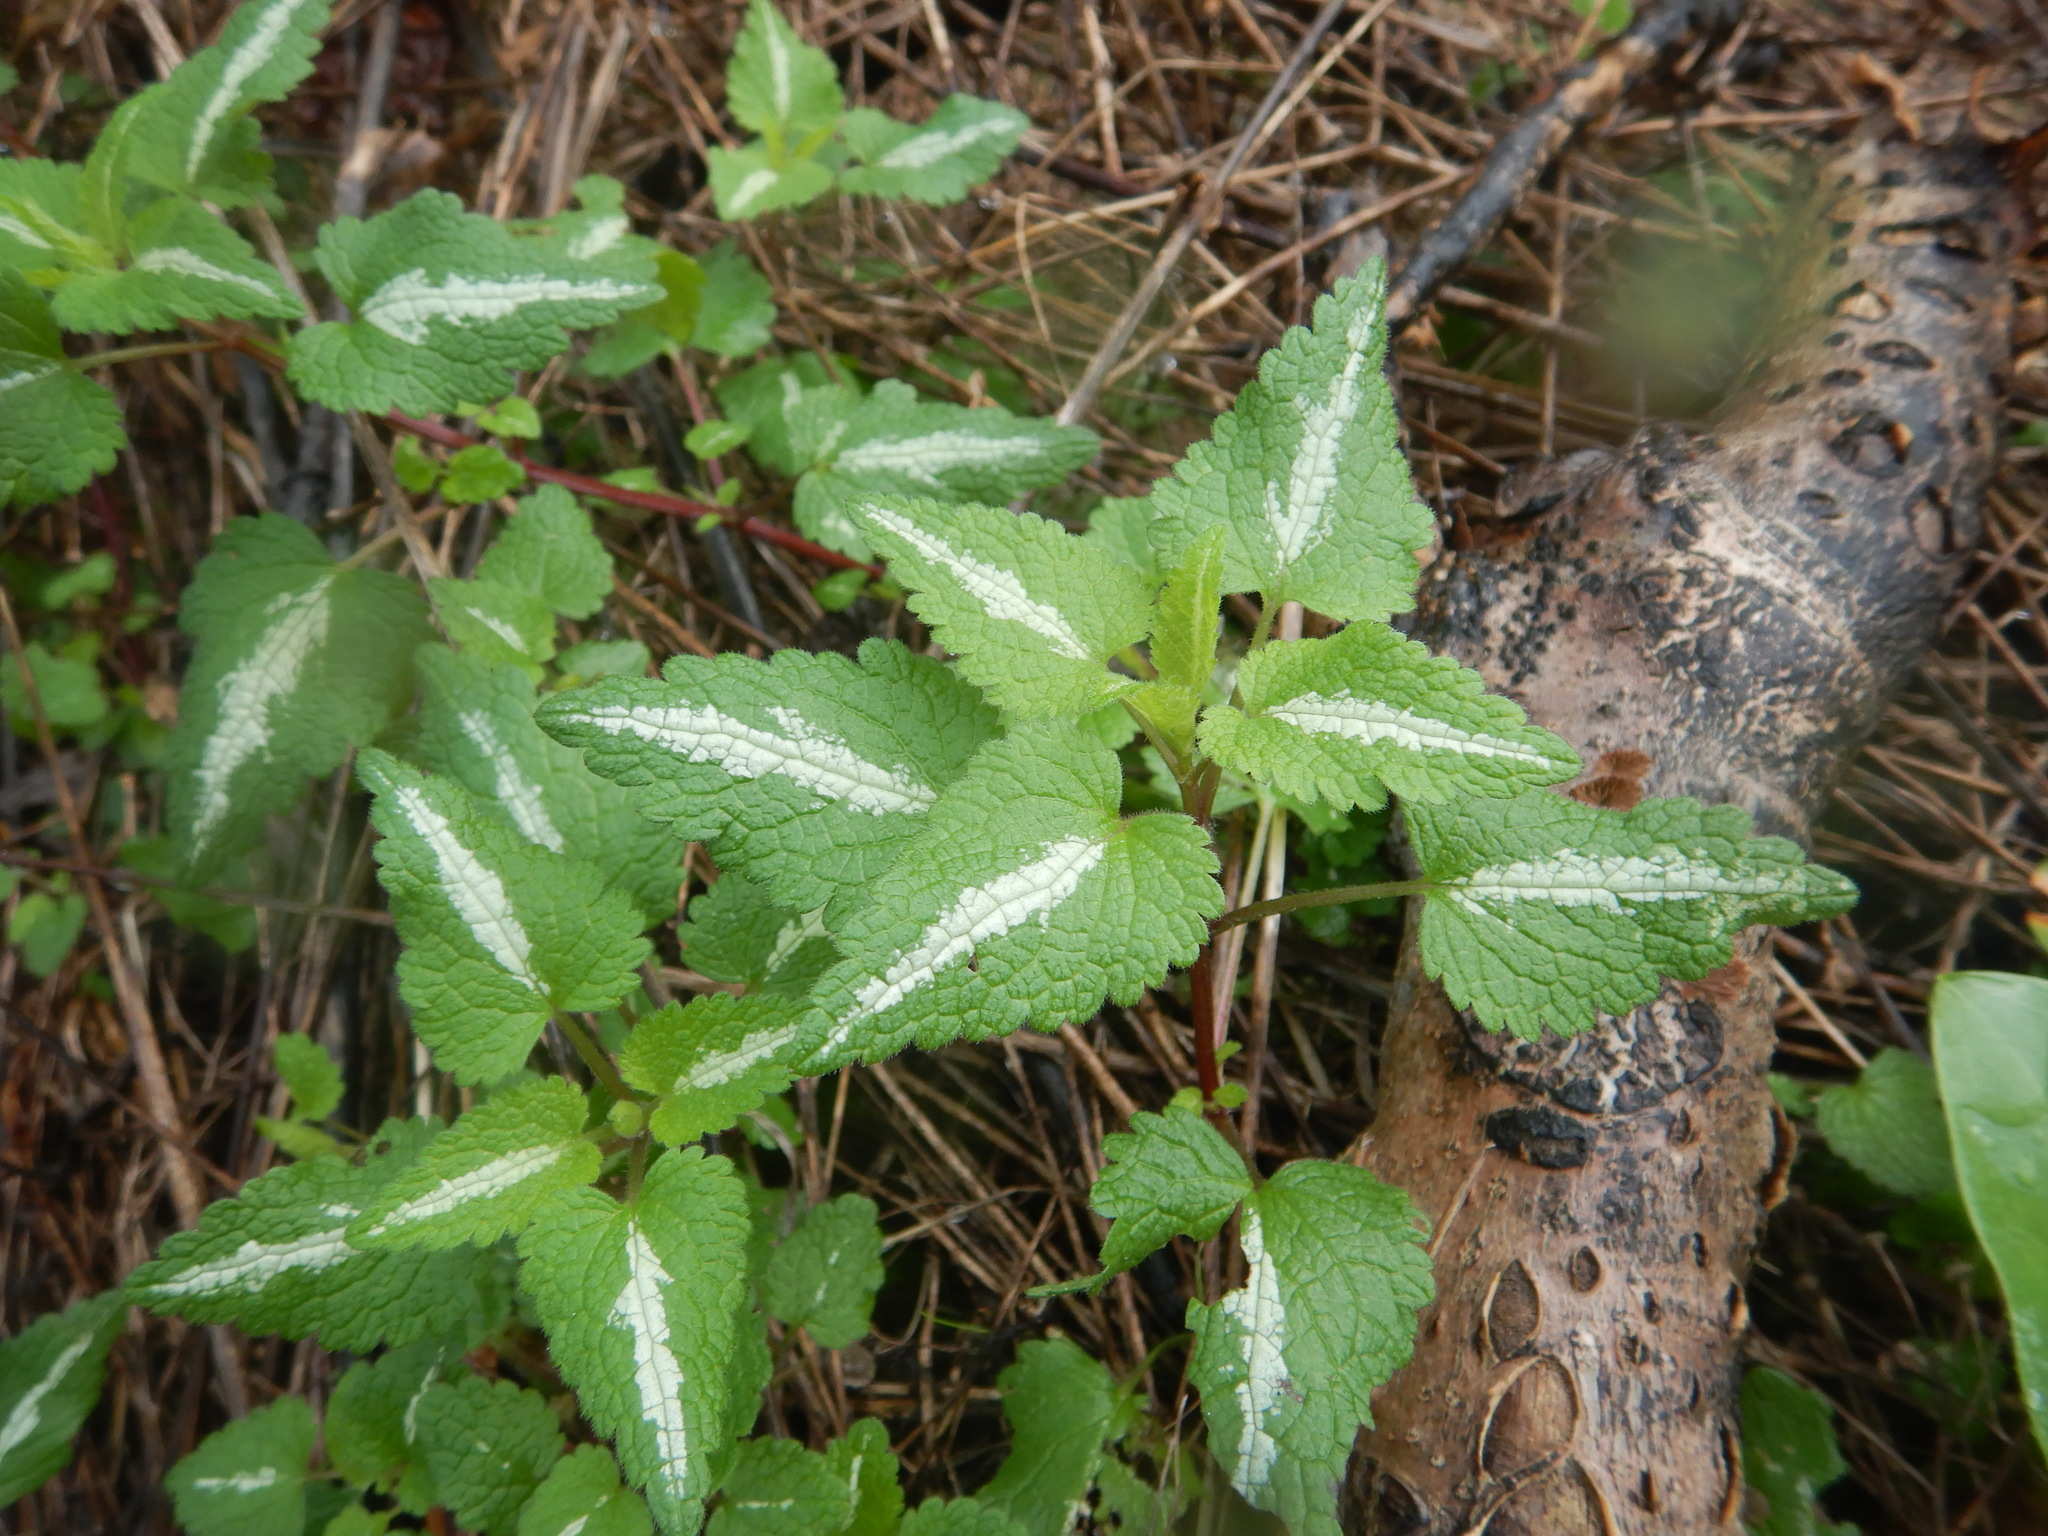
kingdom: Plantae
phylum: Tracheophyta
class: Magnoliopsida
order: Lamiales
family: Lamiaceae
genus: Lamium
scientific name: Lamium maculatum
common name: Spotted dead-nettle
